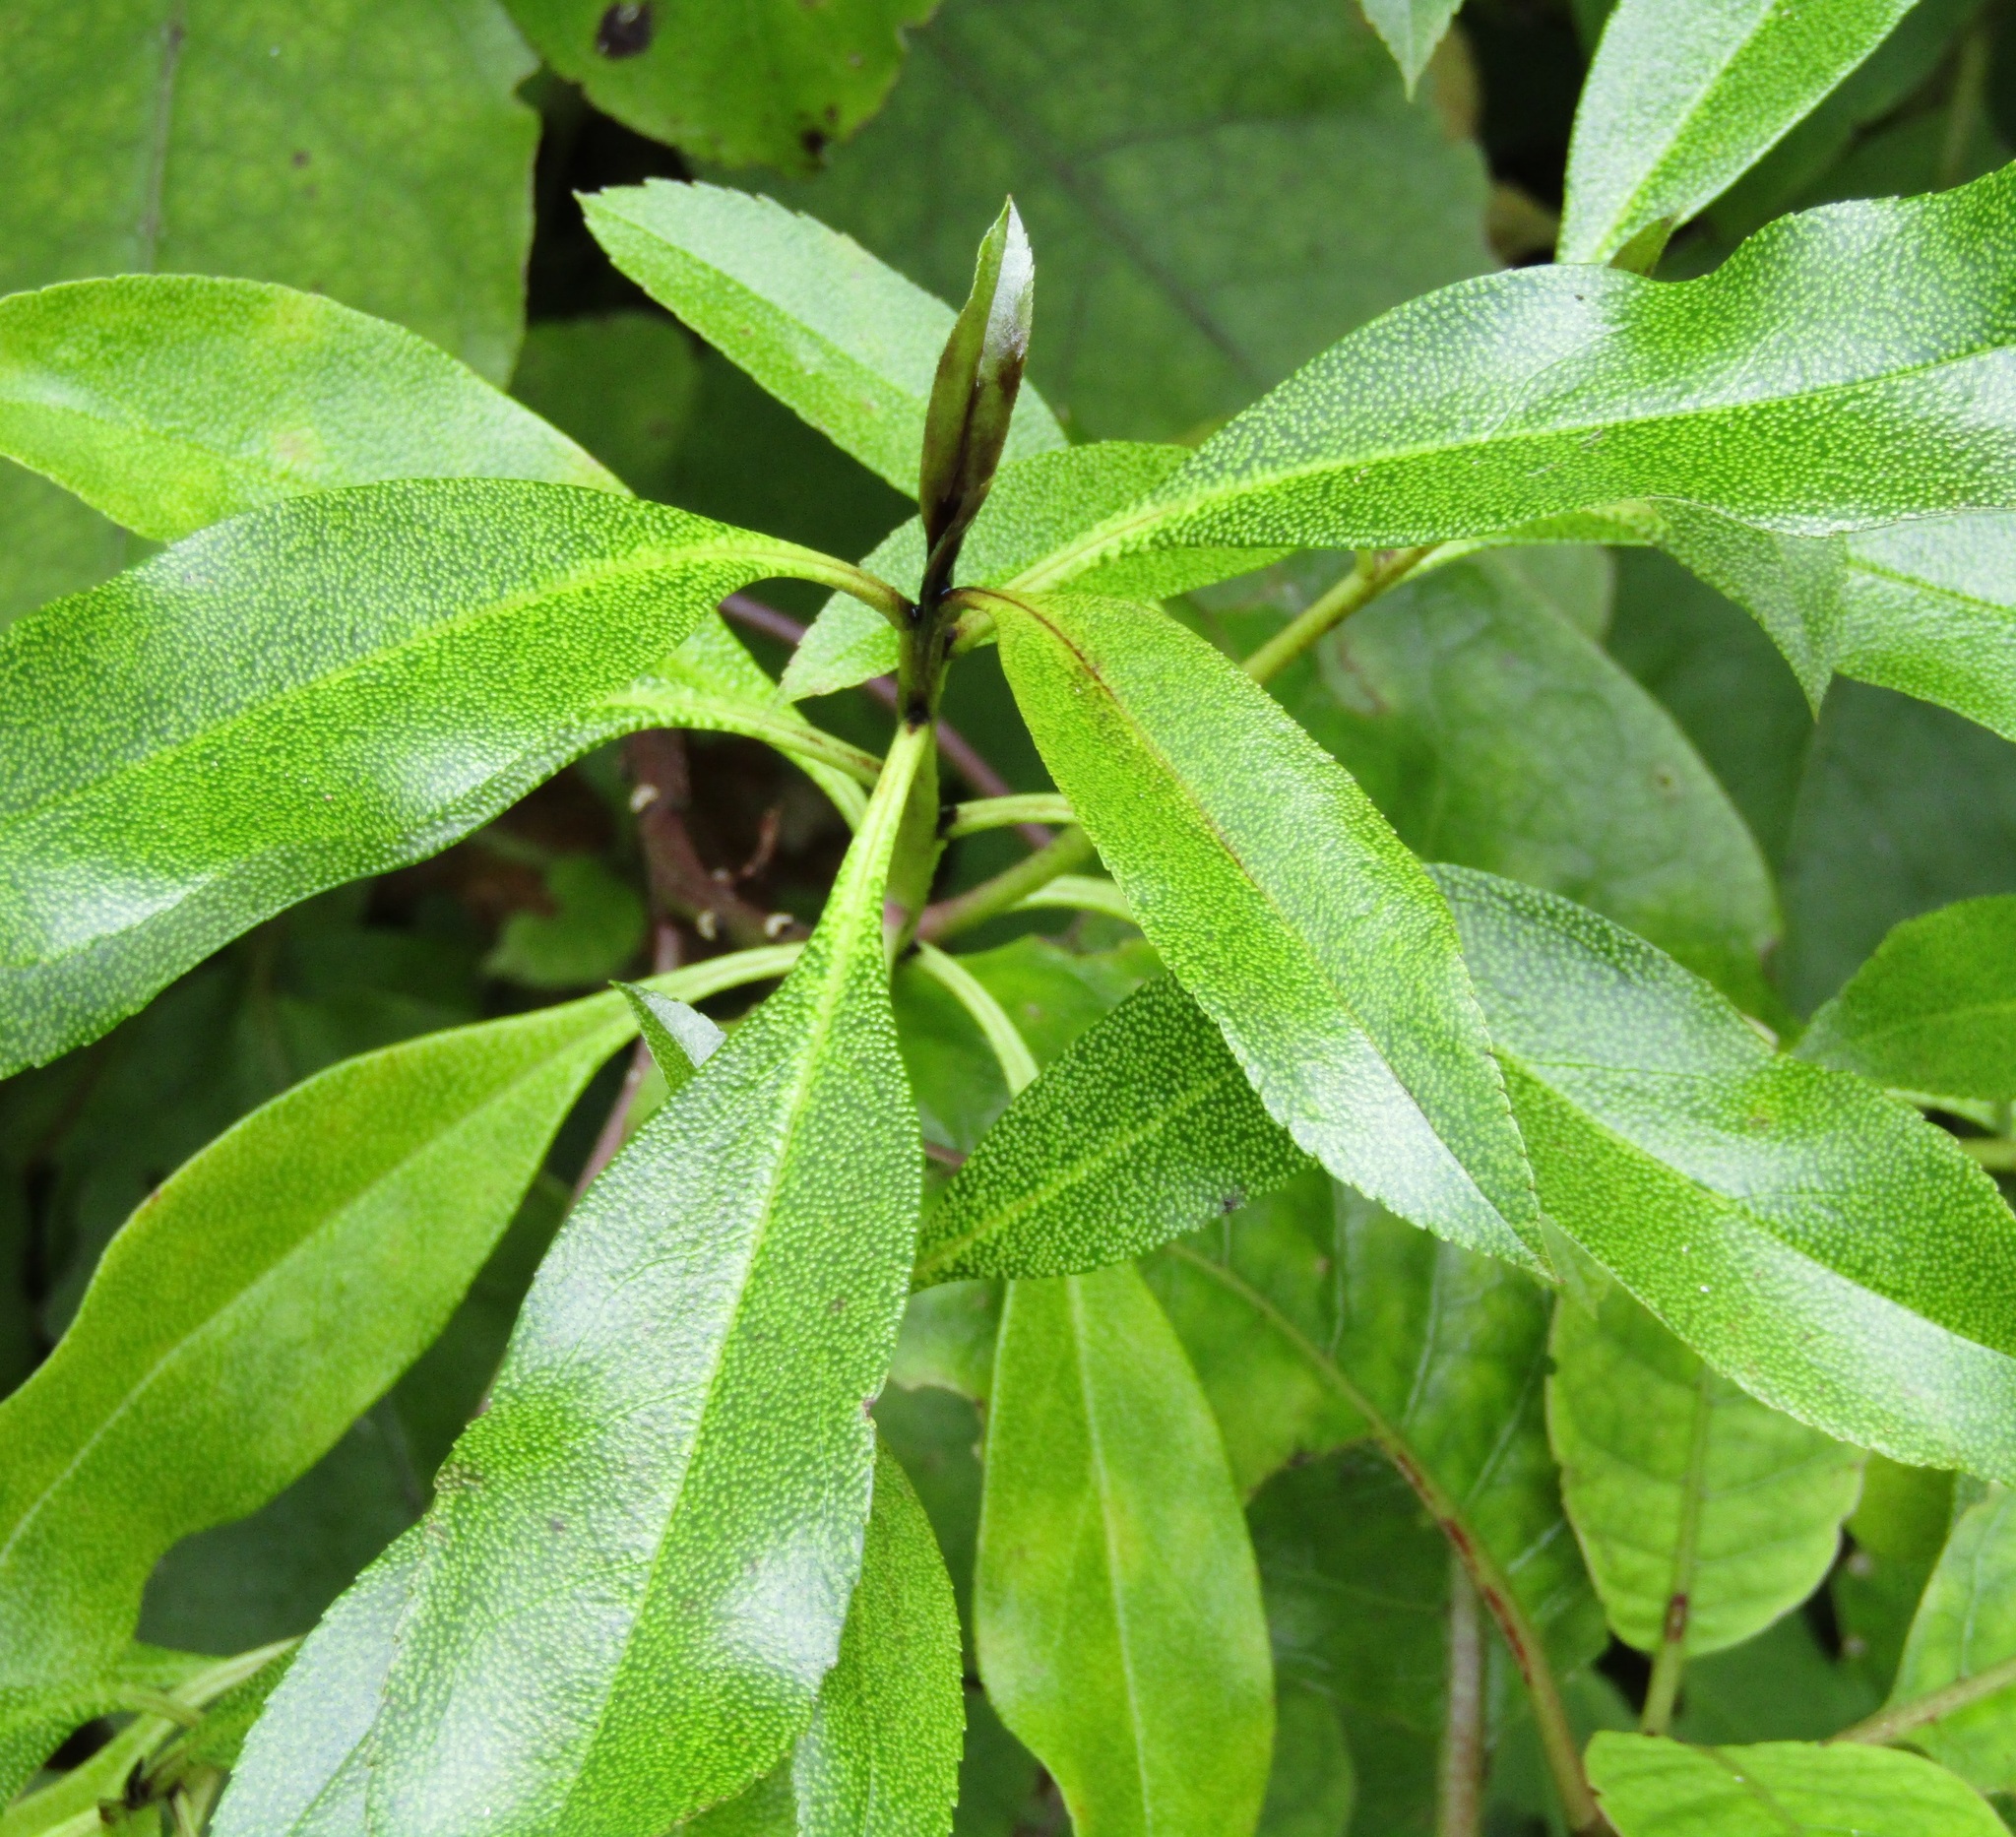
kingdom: Plantae
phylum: Tracheophyta
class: Magnoliopsida
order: Lamiales
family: Scrophulariaceae
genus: Myoporum
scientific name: Myoporum laetum
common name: Ngaio tree
